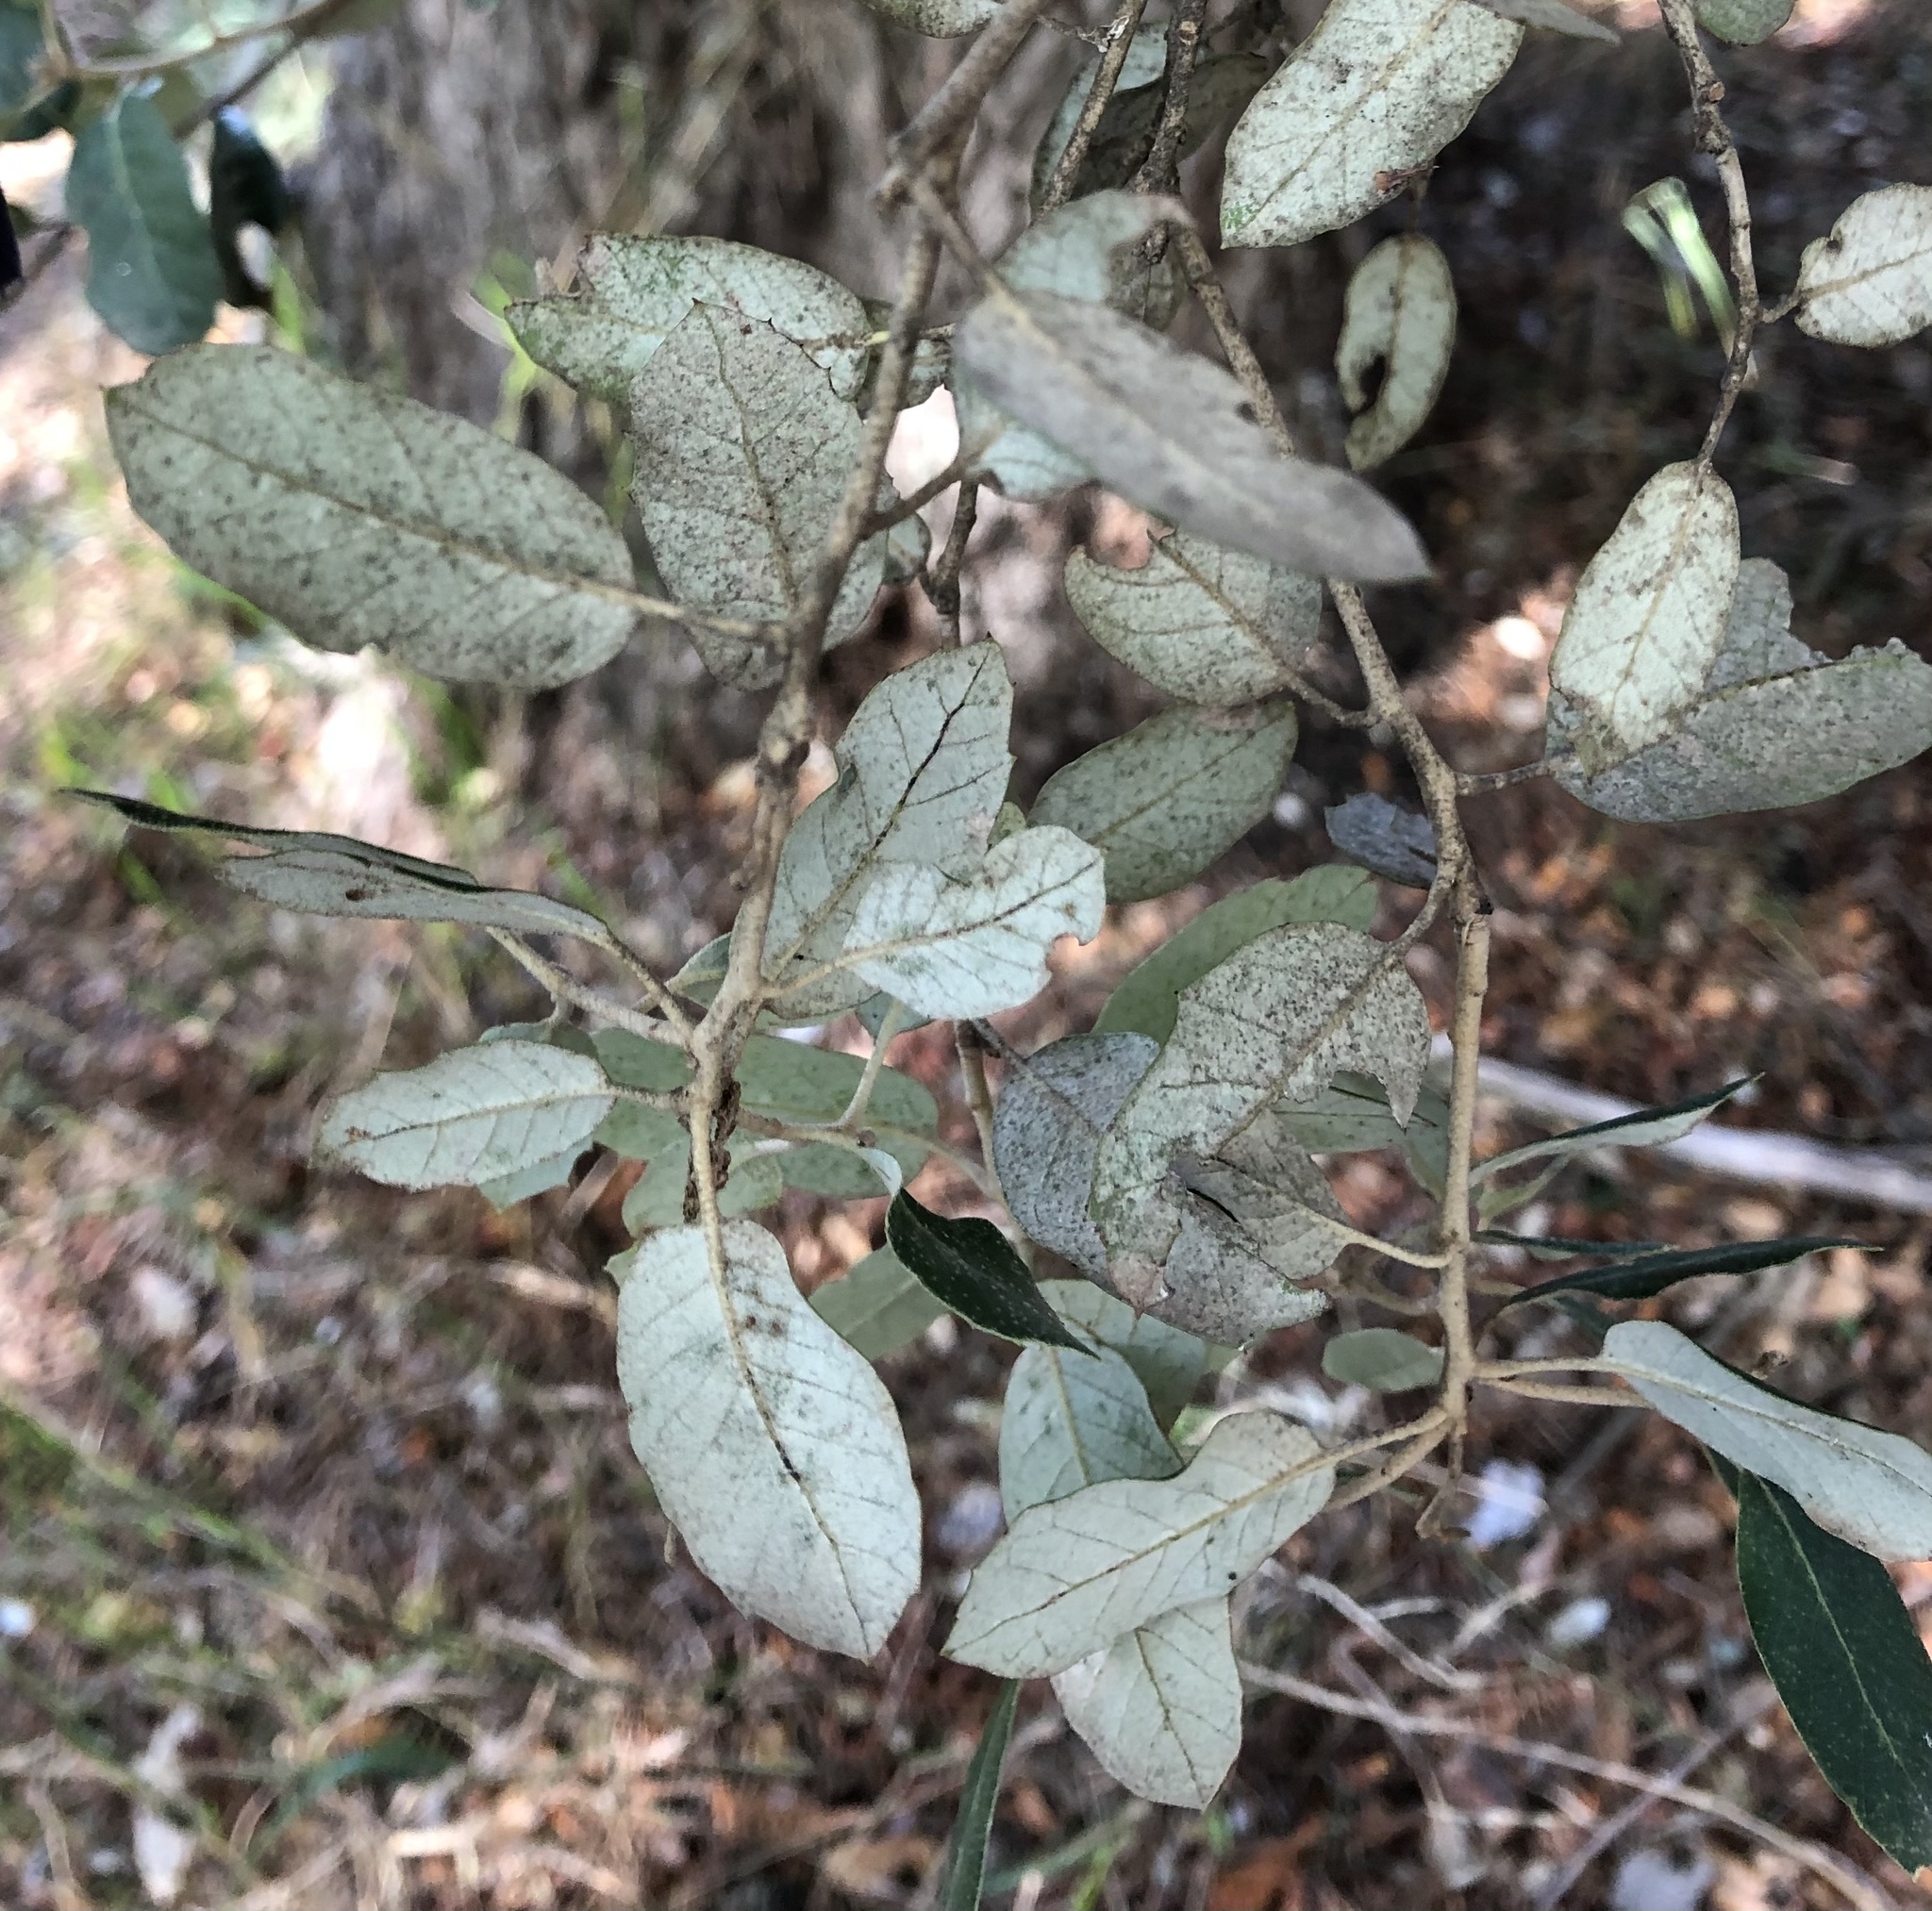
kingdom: Plantae
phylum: Tracheophyta
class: Magnoliopsida
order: Fagales
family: Fagaceae
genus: Quercus
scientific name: Quercus ilex
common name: Evergreen oak
